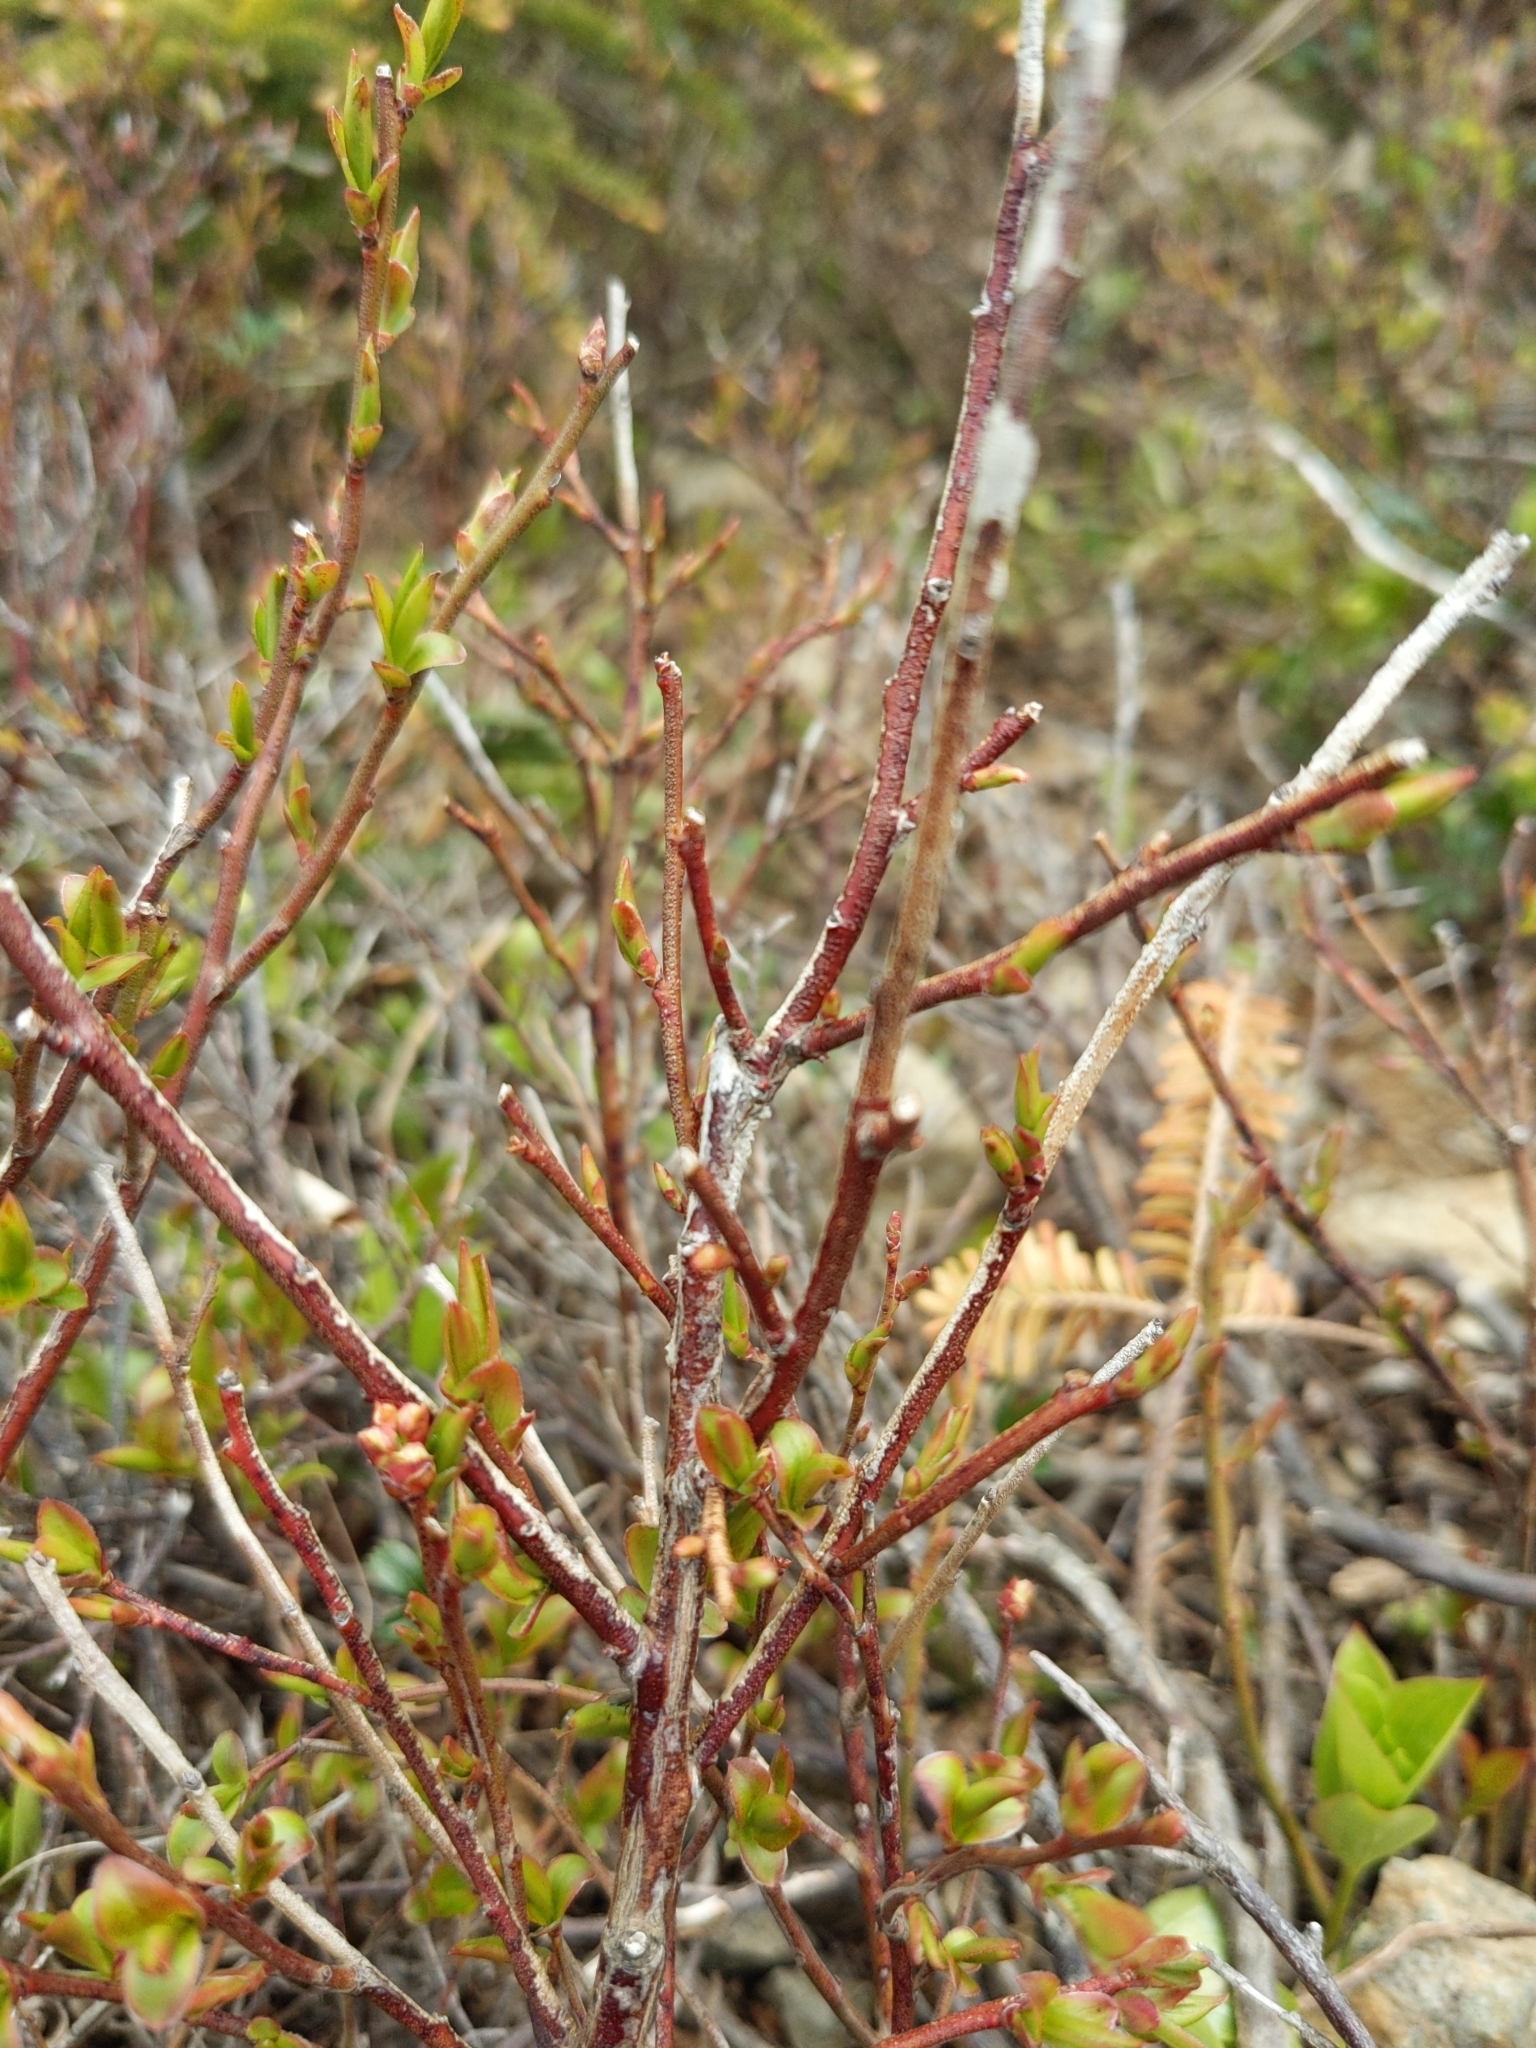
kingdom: Plantae
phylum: Tracheophyta
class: Magnoliopsida
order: Ericales
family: Ericaceae
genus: Vaccinium
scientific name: Vaccinium angustifolium
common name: Early lowbush blueberry
